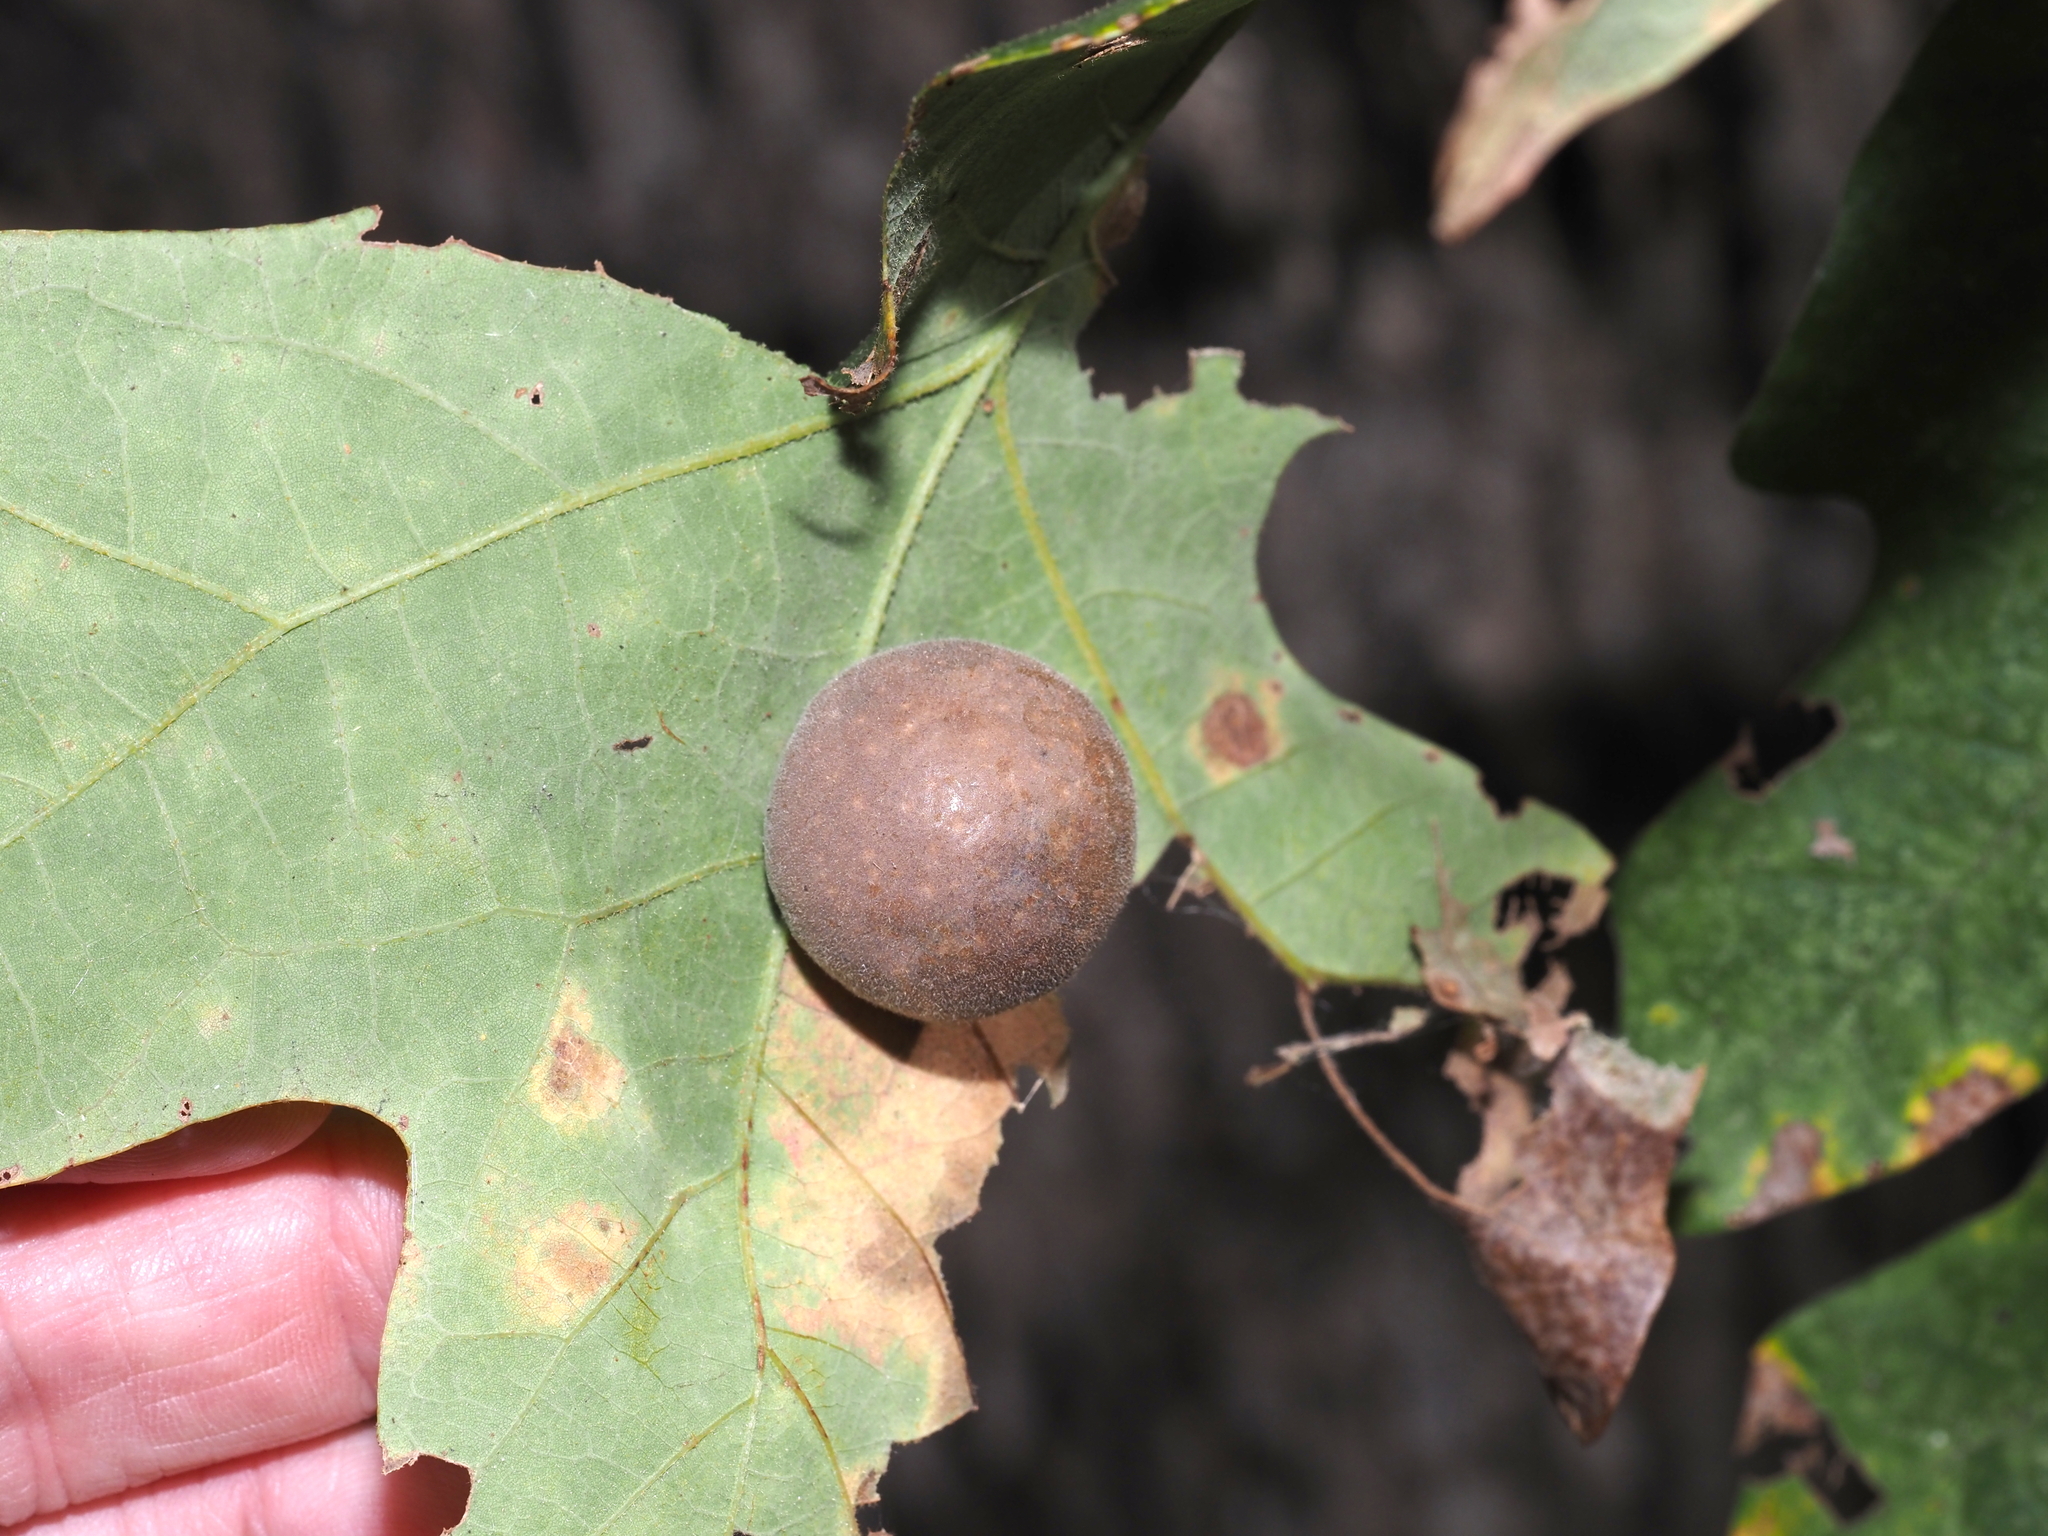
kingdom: Animalia
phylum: Arthropoda
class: Insecta
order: Hymenoptera
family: Cynipidae
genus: Atrusca
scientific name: Atrusca
